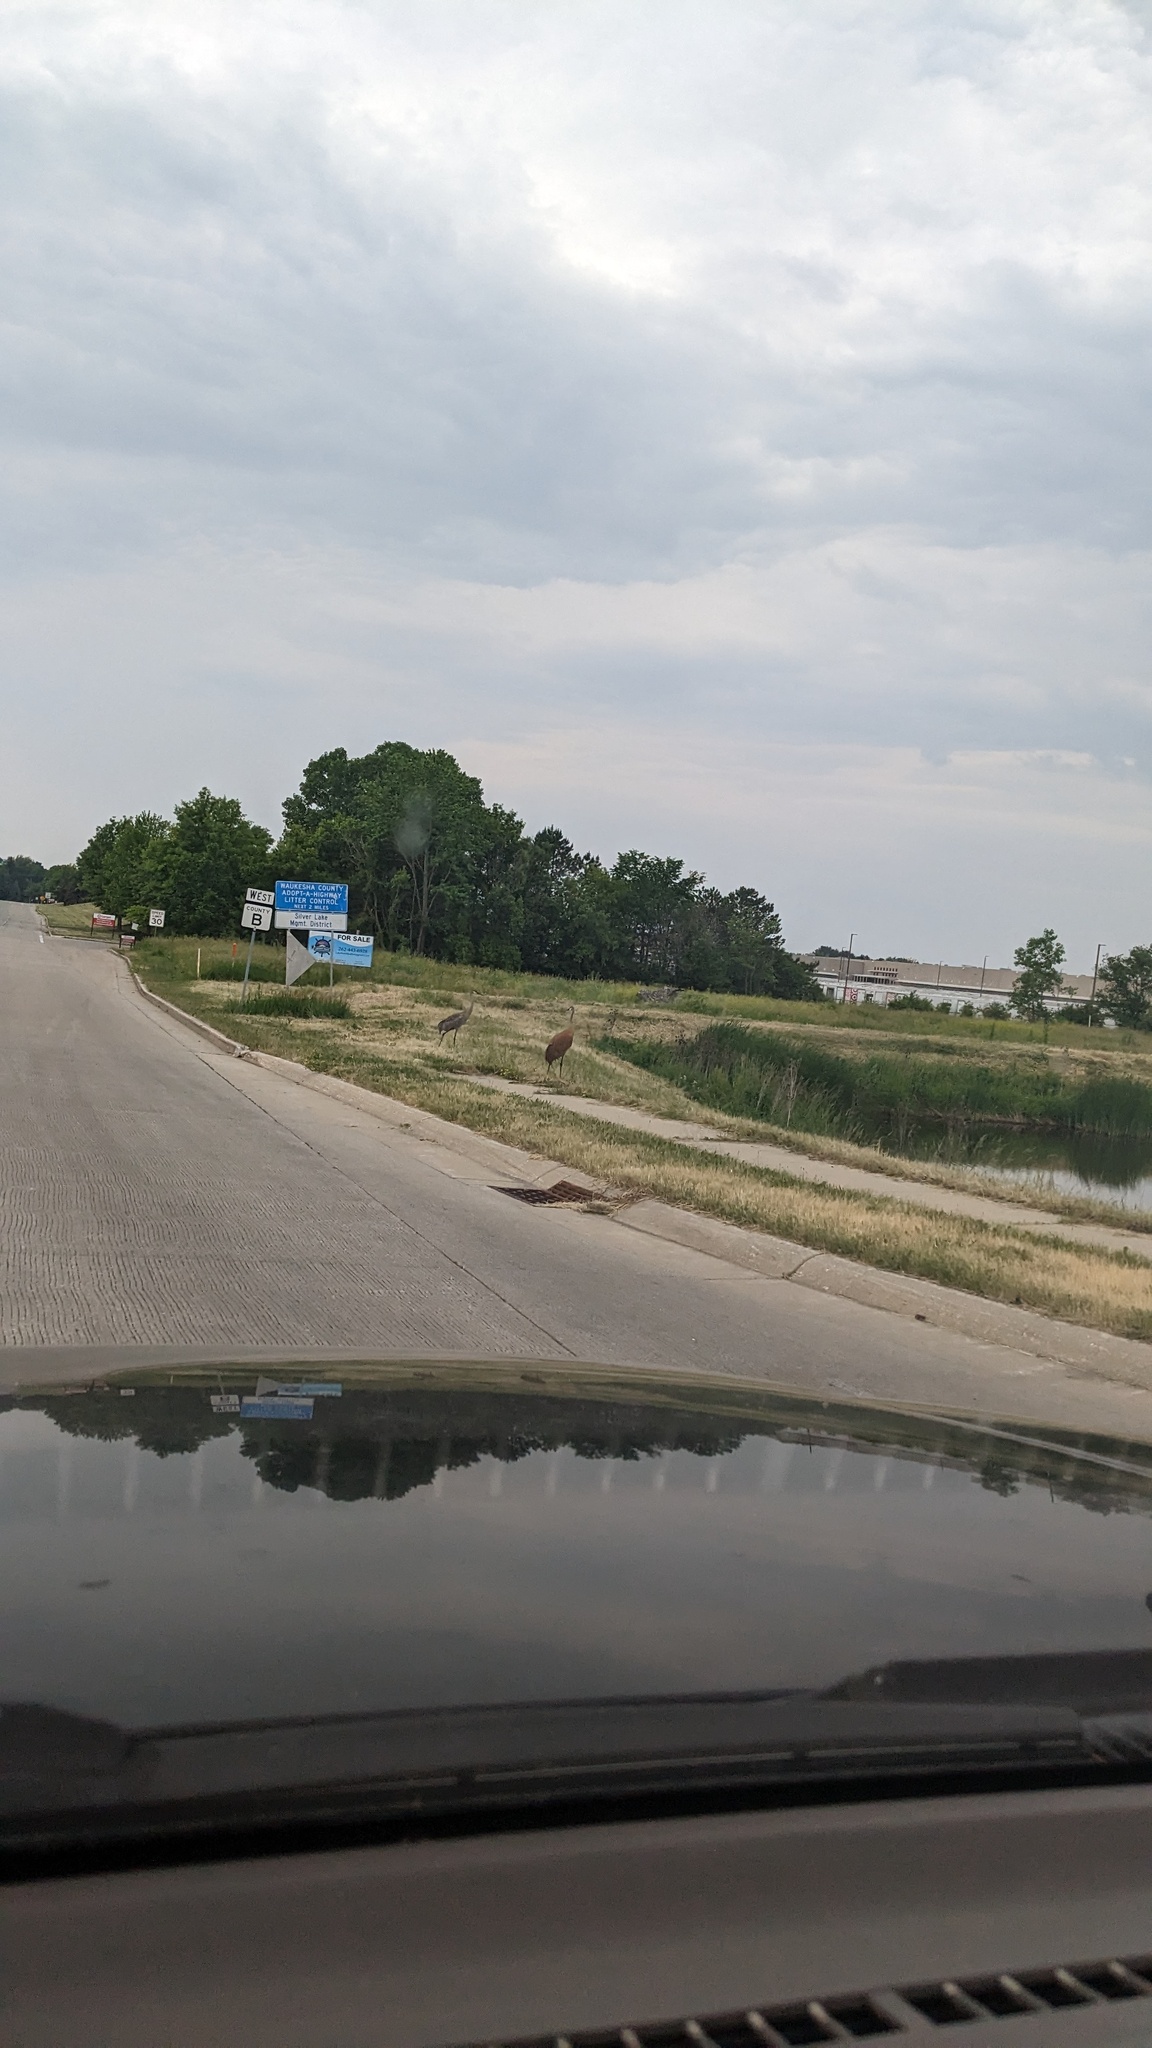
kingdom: Animalia
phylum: Chordata
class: Aves
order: Gruiformes
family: Gruidae
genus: Grus
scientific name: Grus canadensis
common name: Sandhill crane
